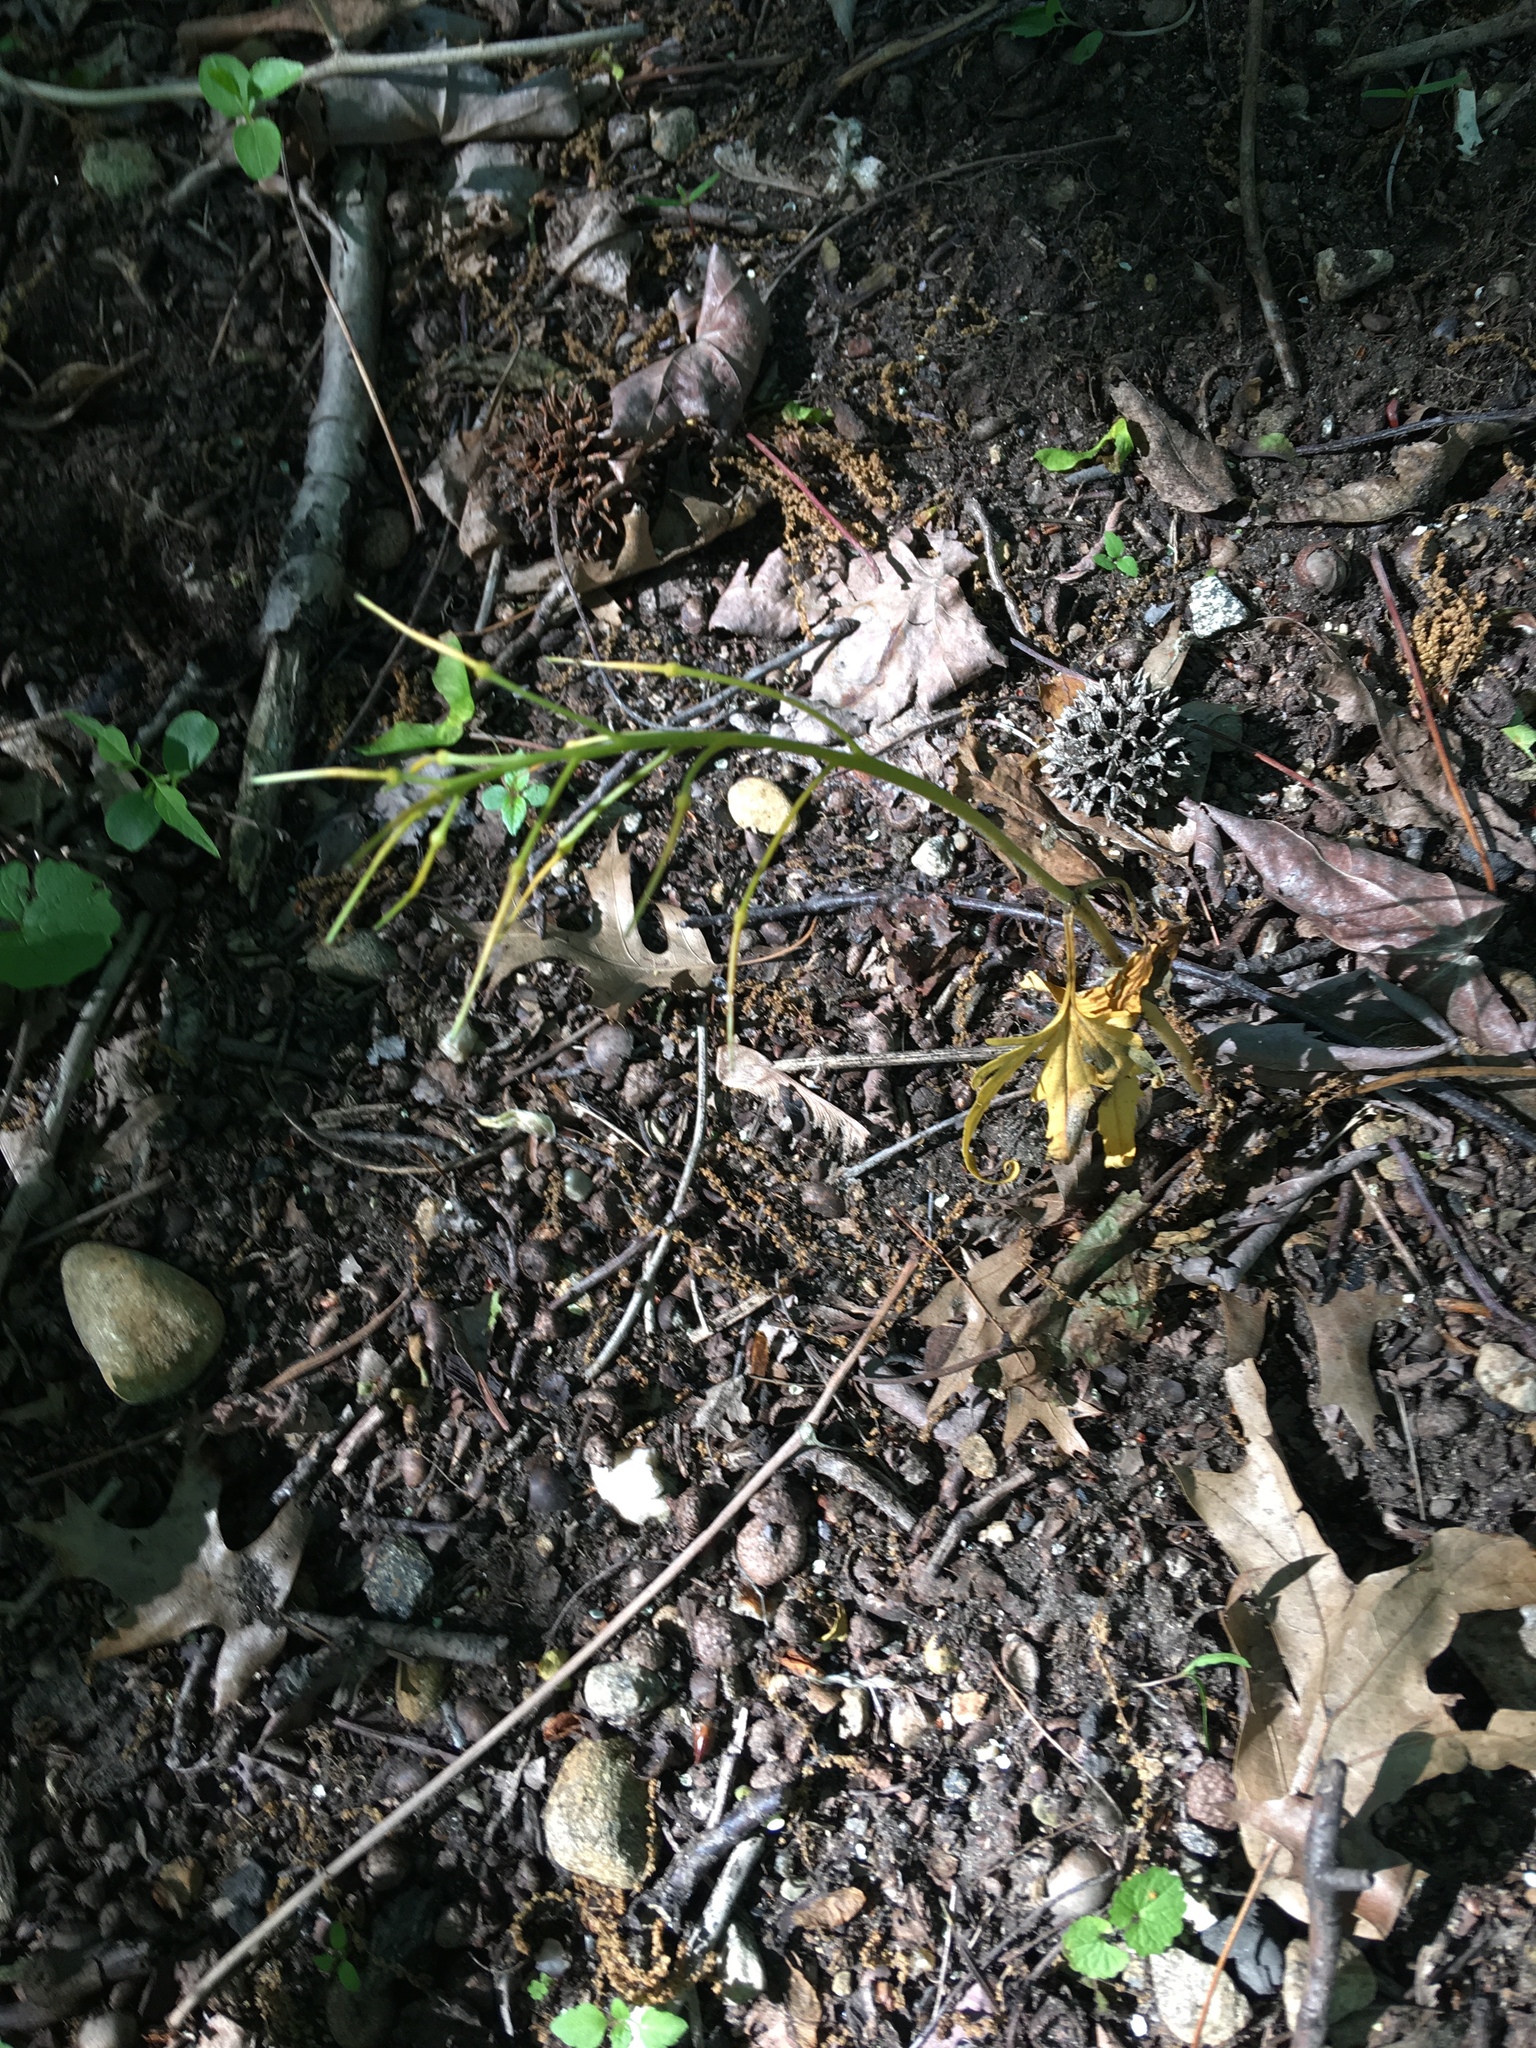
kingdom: Plantae
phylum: Tracheophyta
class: Magnoliopsida
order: Brassicales
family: Brassicaceae
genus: Cardamine
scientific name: Cardamine concatenata
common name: Cut-leaf toothcup
